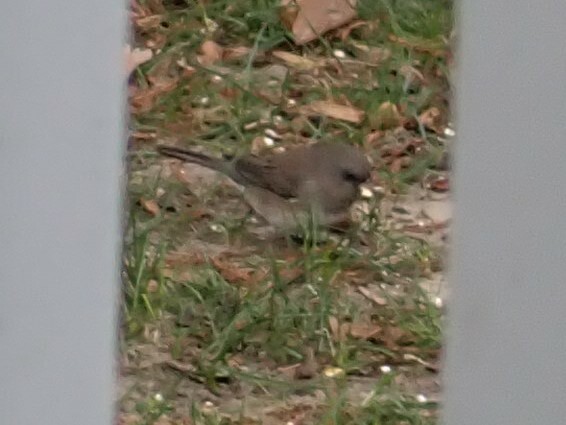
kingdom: Animalia
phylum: Chordata
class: Aves
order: Passeriformes
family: Passerellidae
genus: Junco
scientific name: Junco hyemalis
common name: Dark-eyed junco
